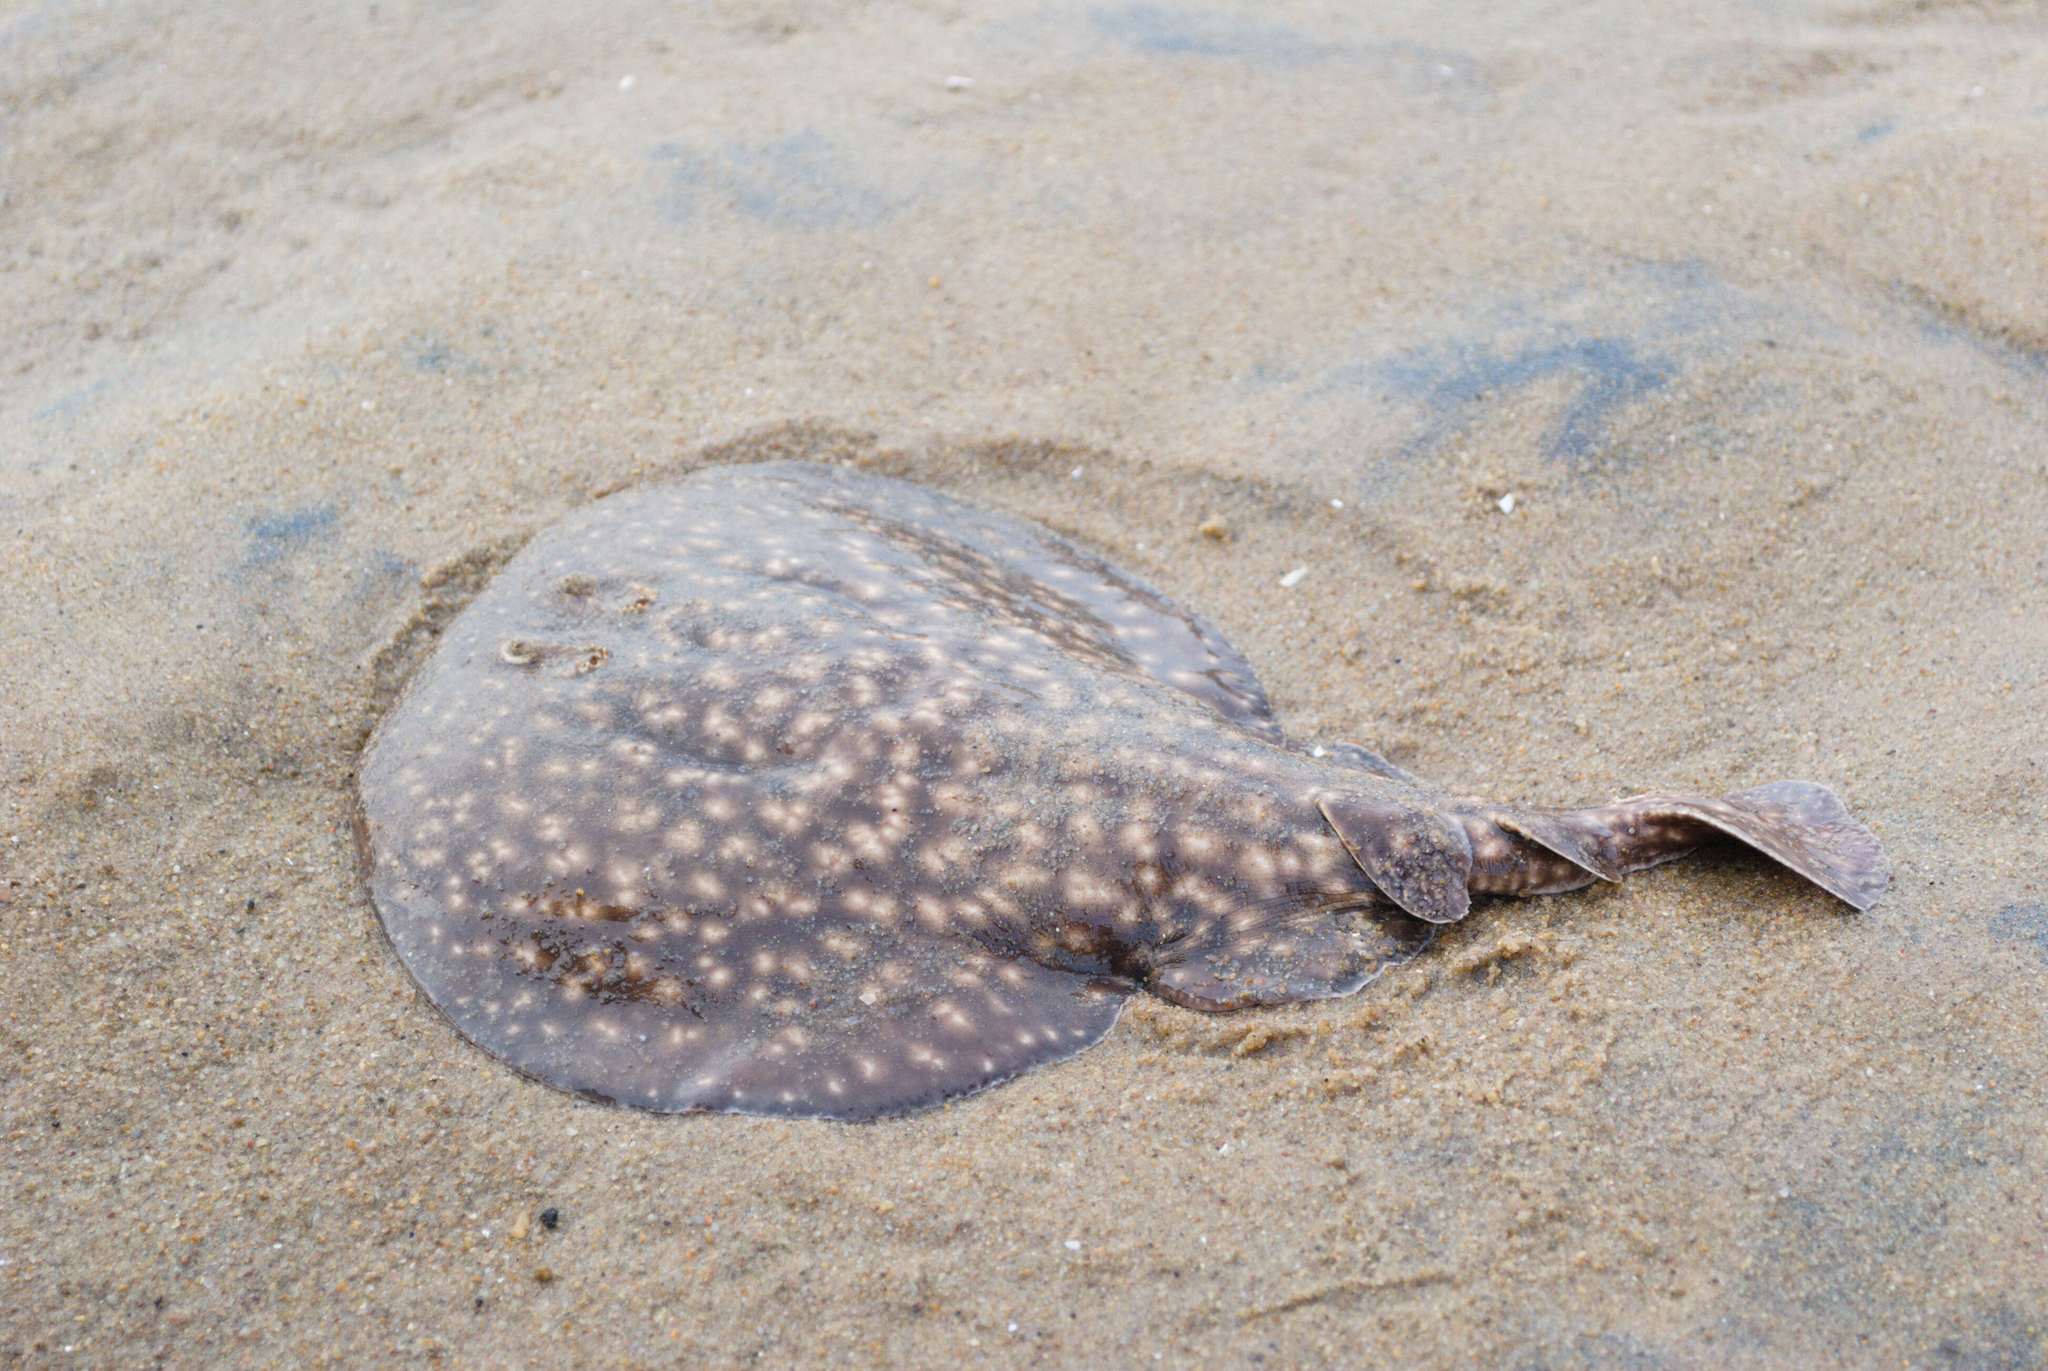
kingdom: Animalia
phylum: Chordata
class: Elasmobranchii
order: Torpediniformes
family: Torpedinidae
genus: Torpedo
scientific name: Torpedo sinuspersici
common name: Marbled electric ray
